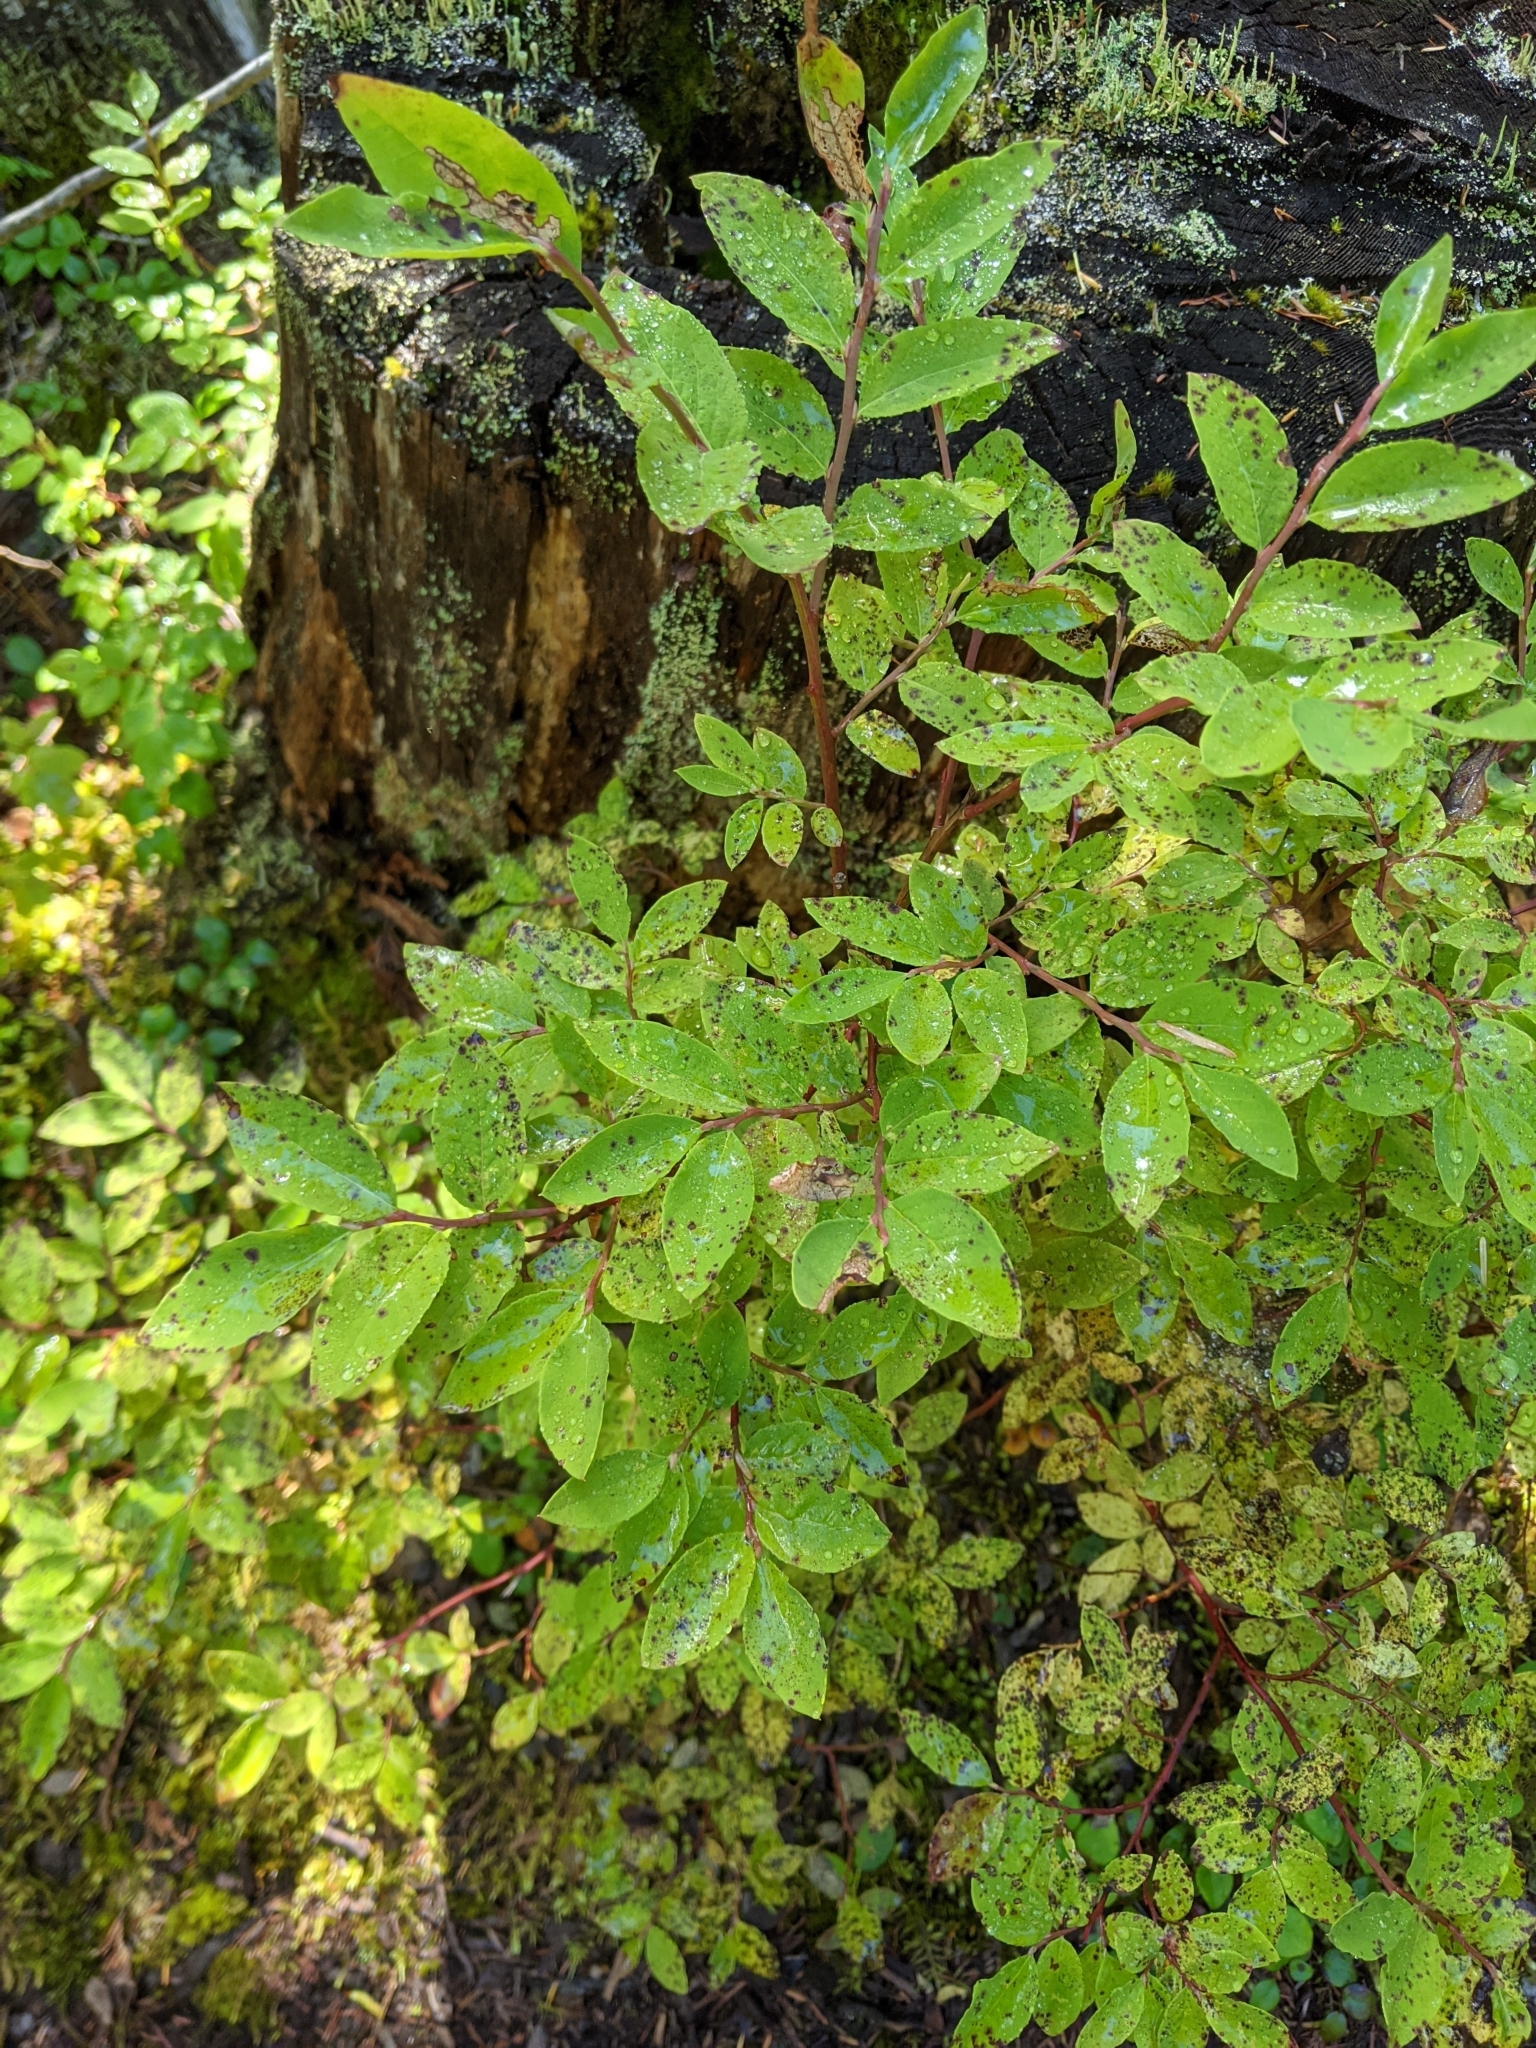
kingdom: Plantae
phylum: Tracheophyta
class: Magnoliopsida
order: Ericales
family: Ericaceae
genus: Vaccinium
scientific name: Vaccinium ovalifolium
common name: Early blueberry
